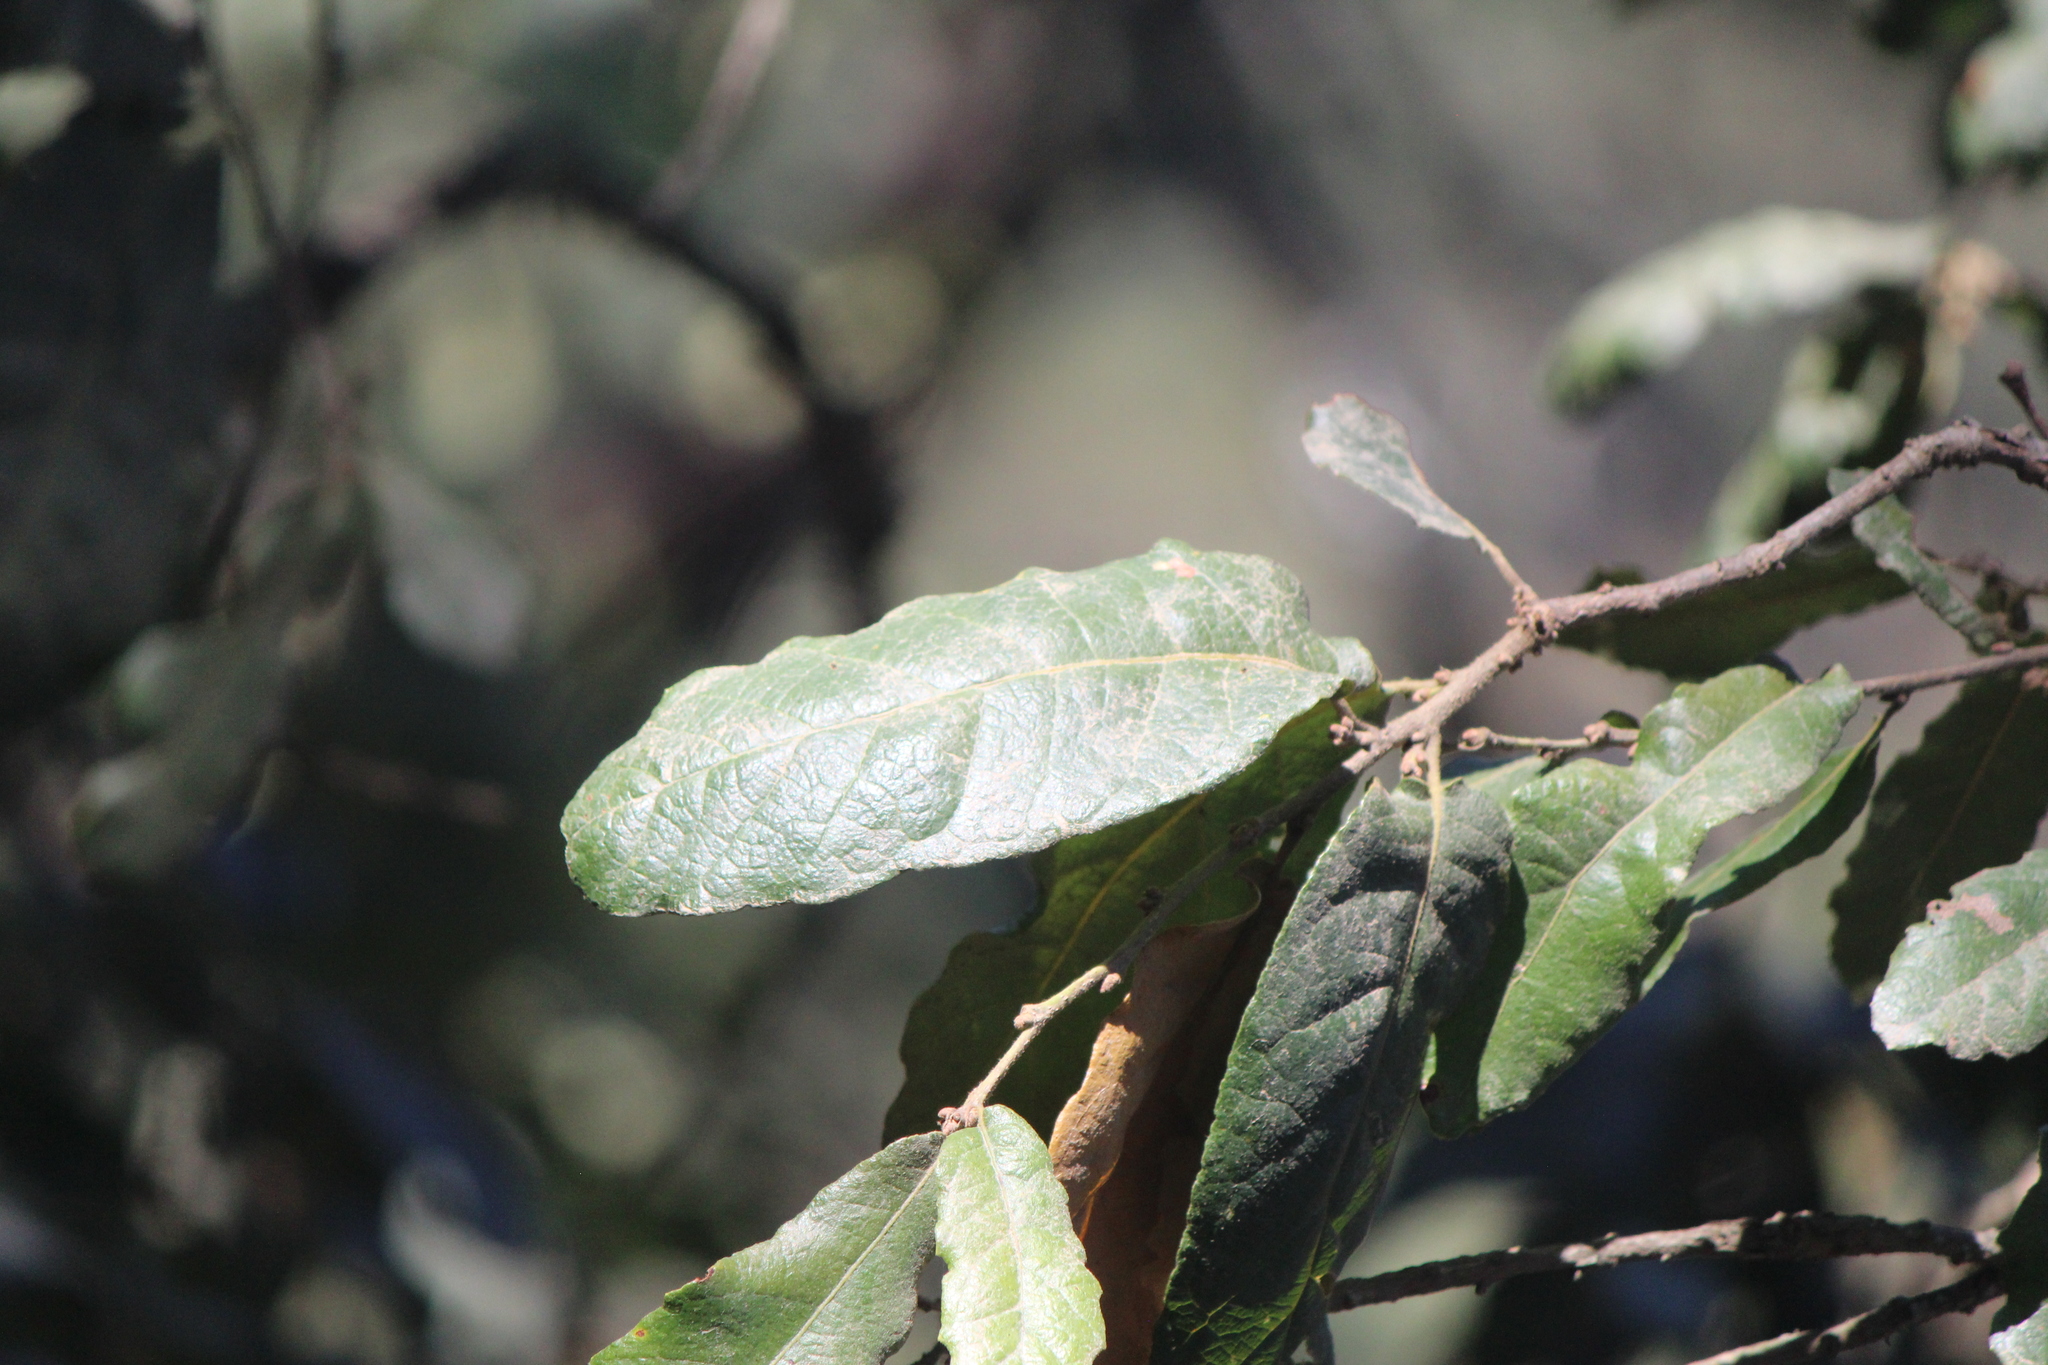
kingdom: Plantae
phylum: Tracheophyta
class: Magnoliopsida
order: Fagales
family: Fagaceae
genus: Quercus
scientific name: Quercus rugosa
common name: Netleaf oak
